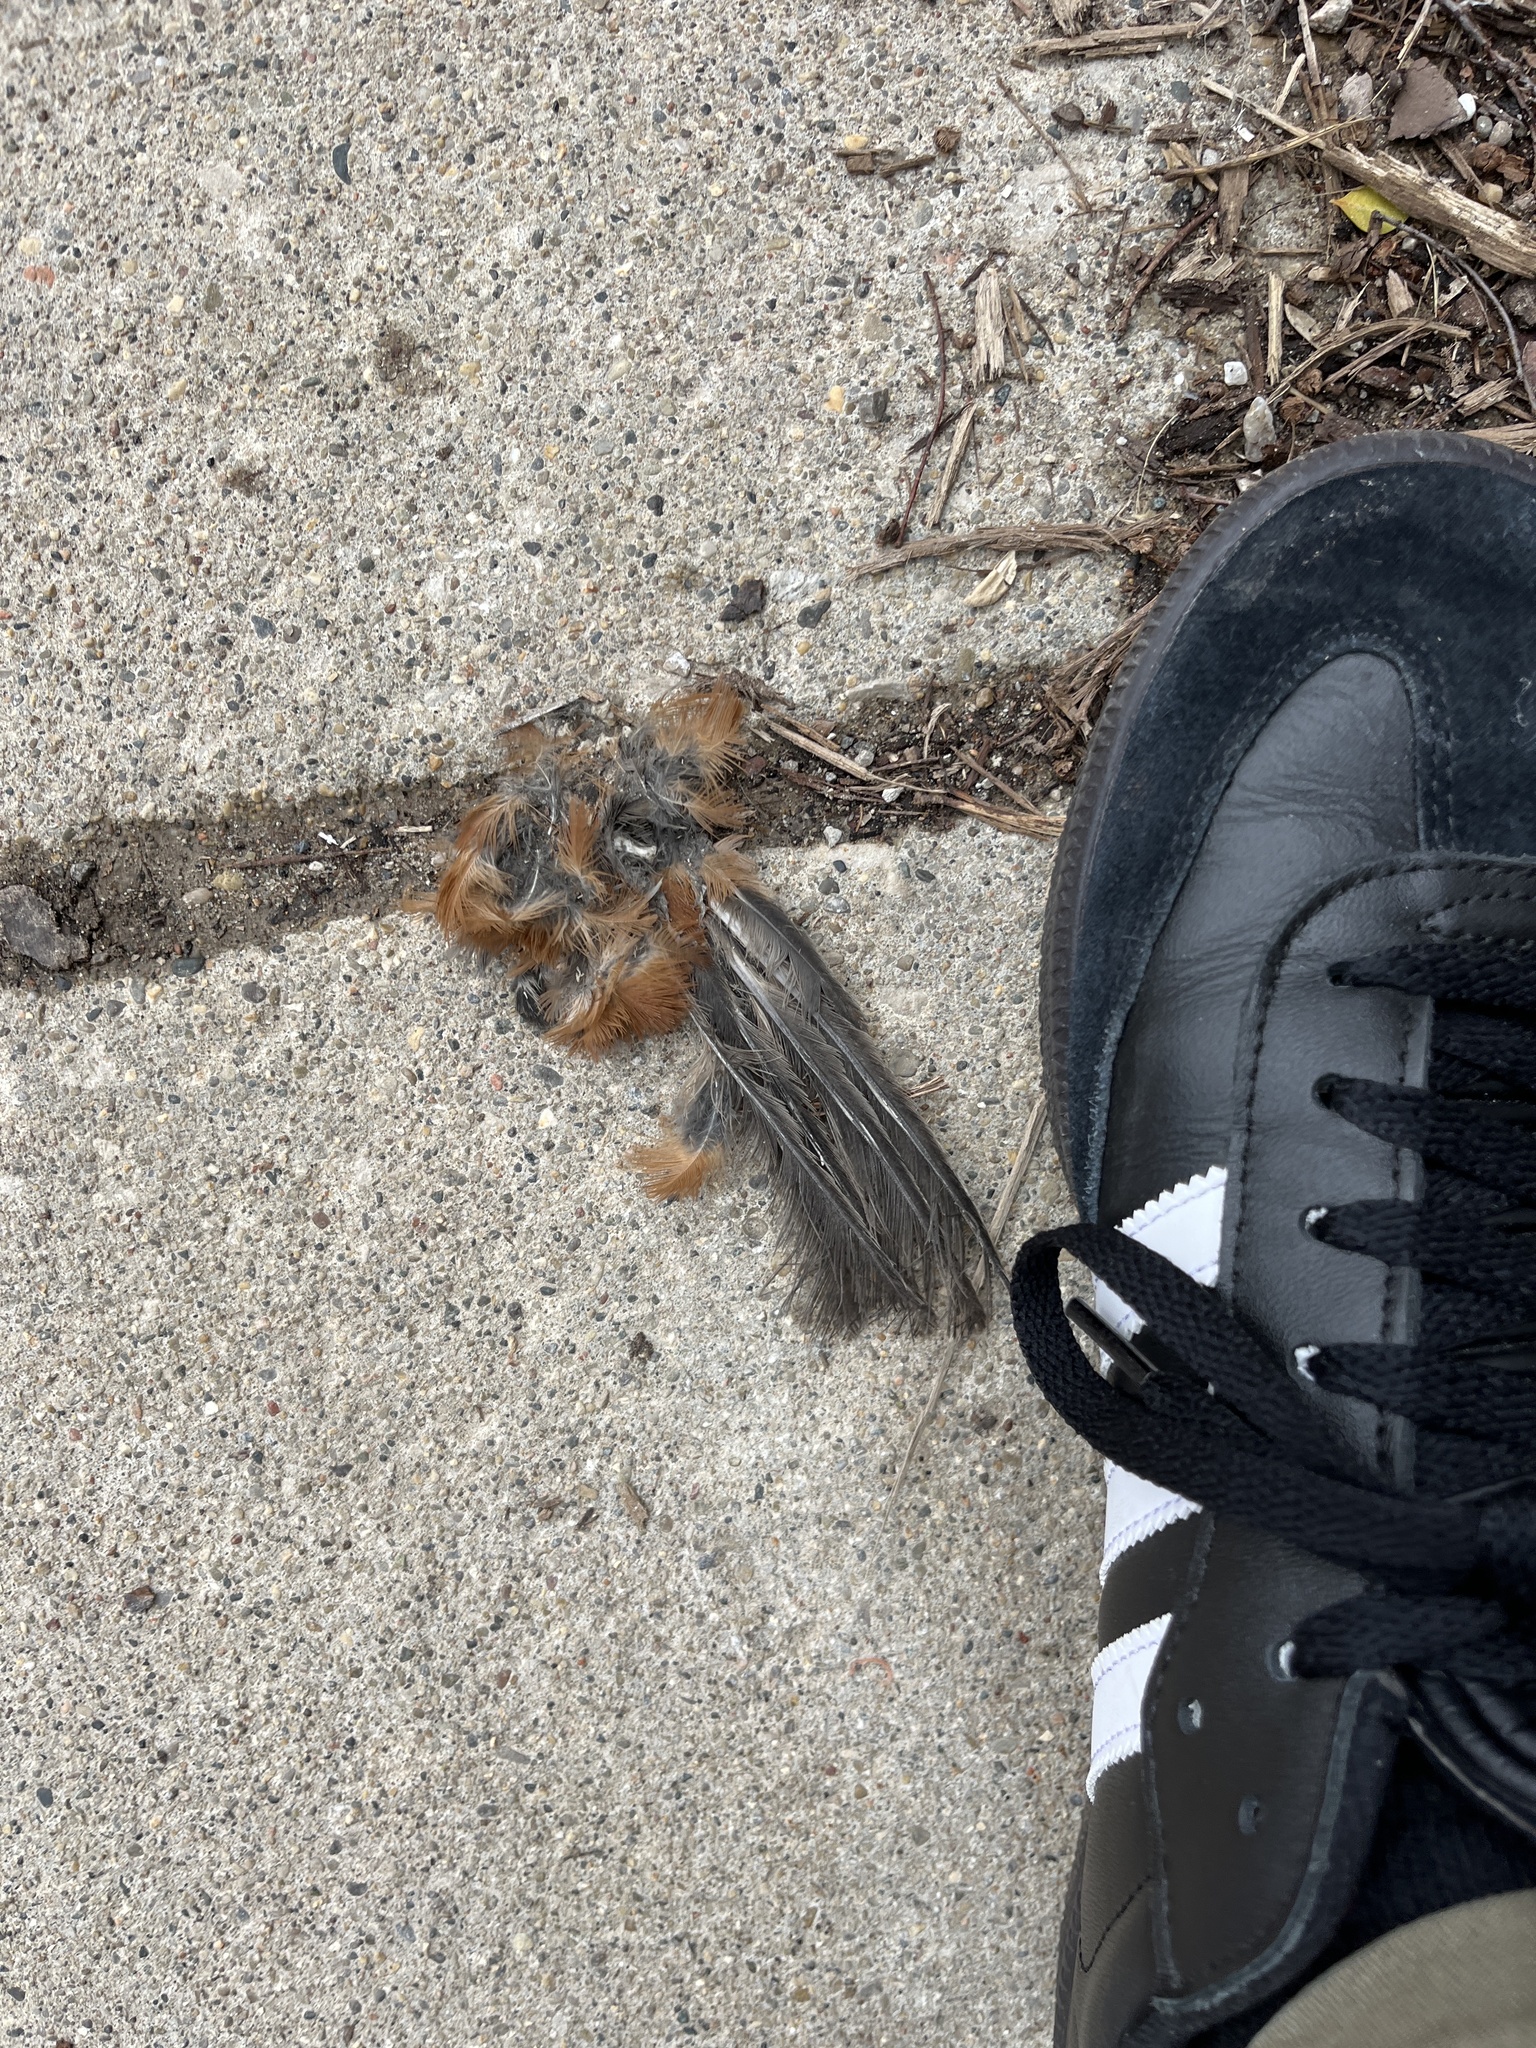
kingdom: Animalia
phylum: Chordata
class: Aves
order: Passeriformes
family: Turdidae
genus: Turdus
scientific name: Turdus migratorius
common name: American robin
